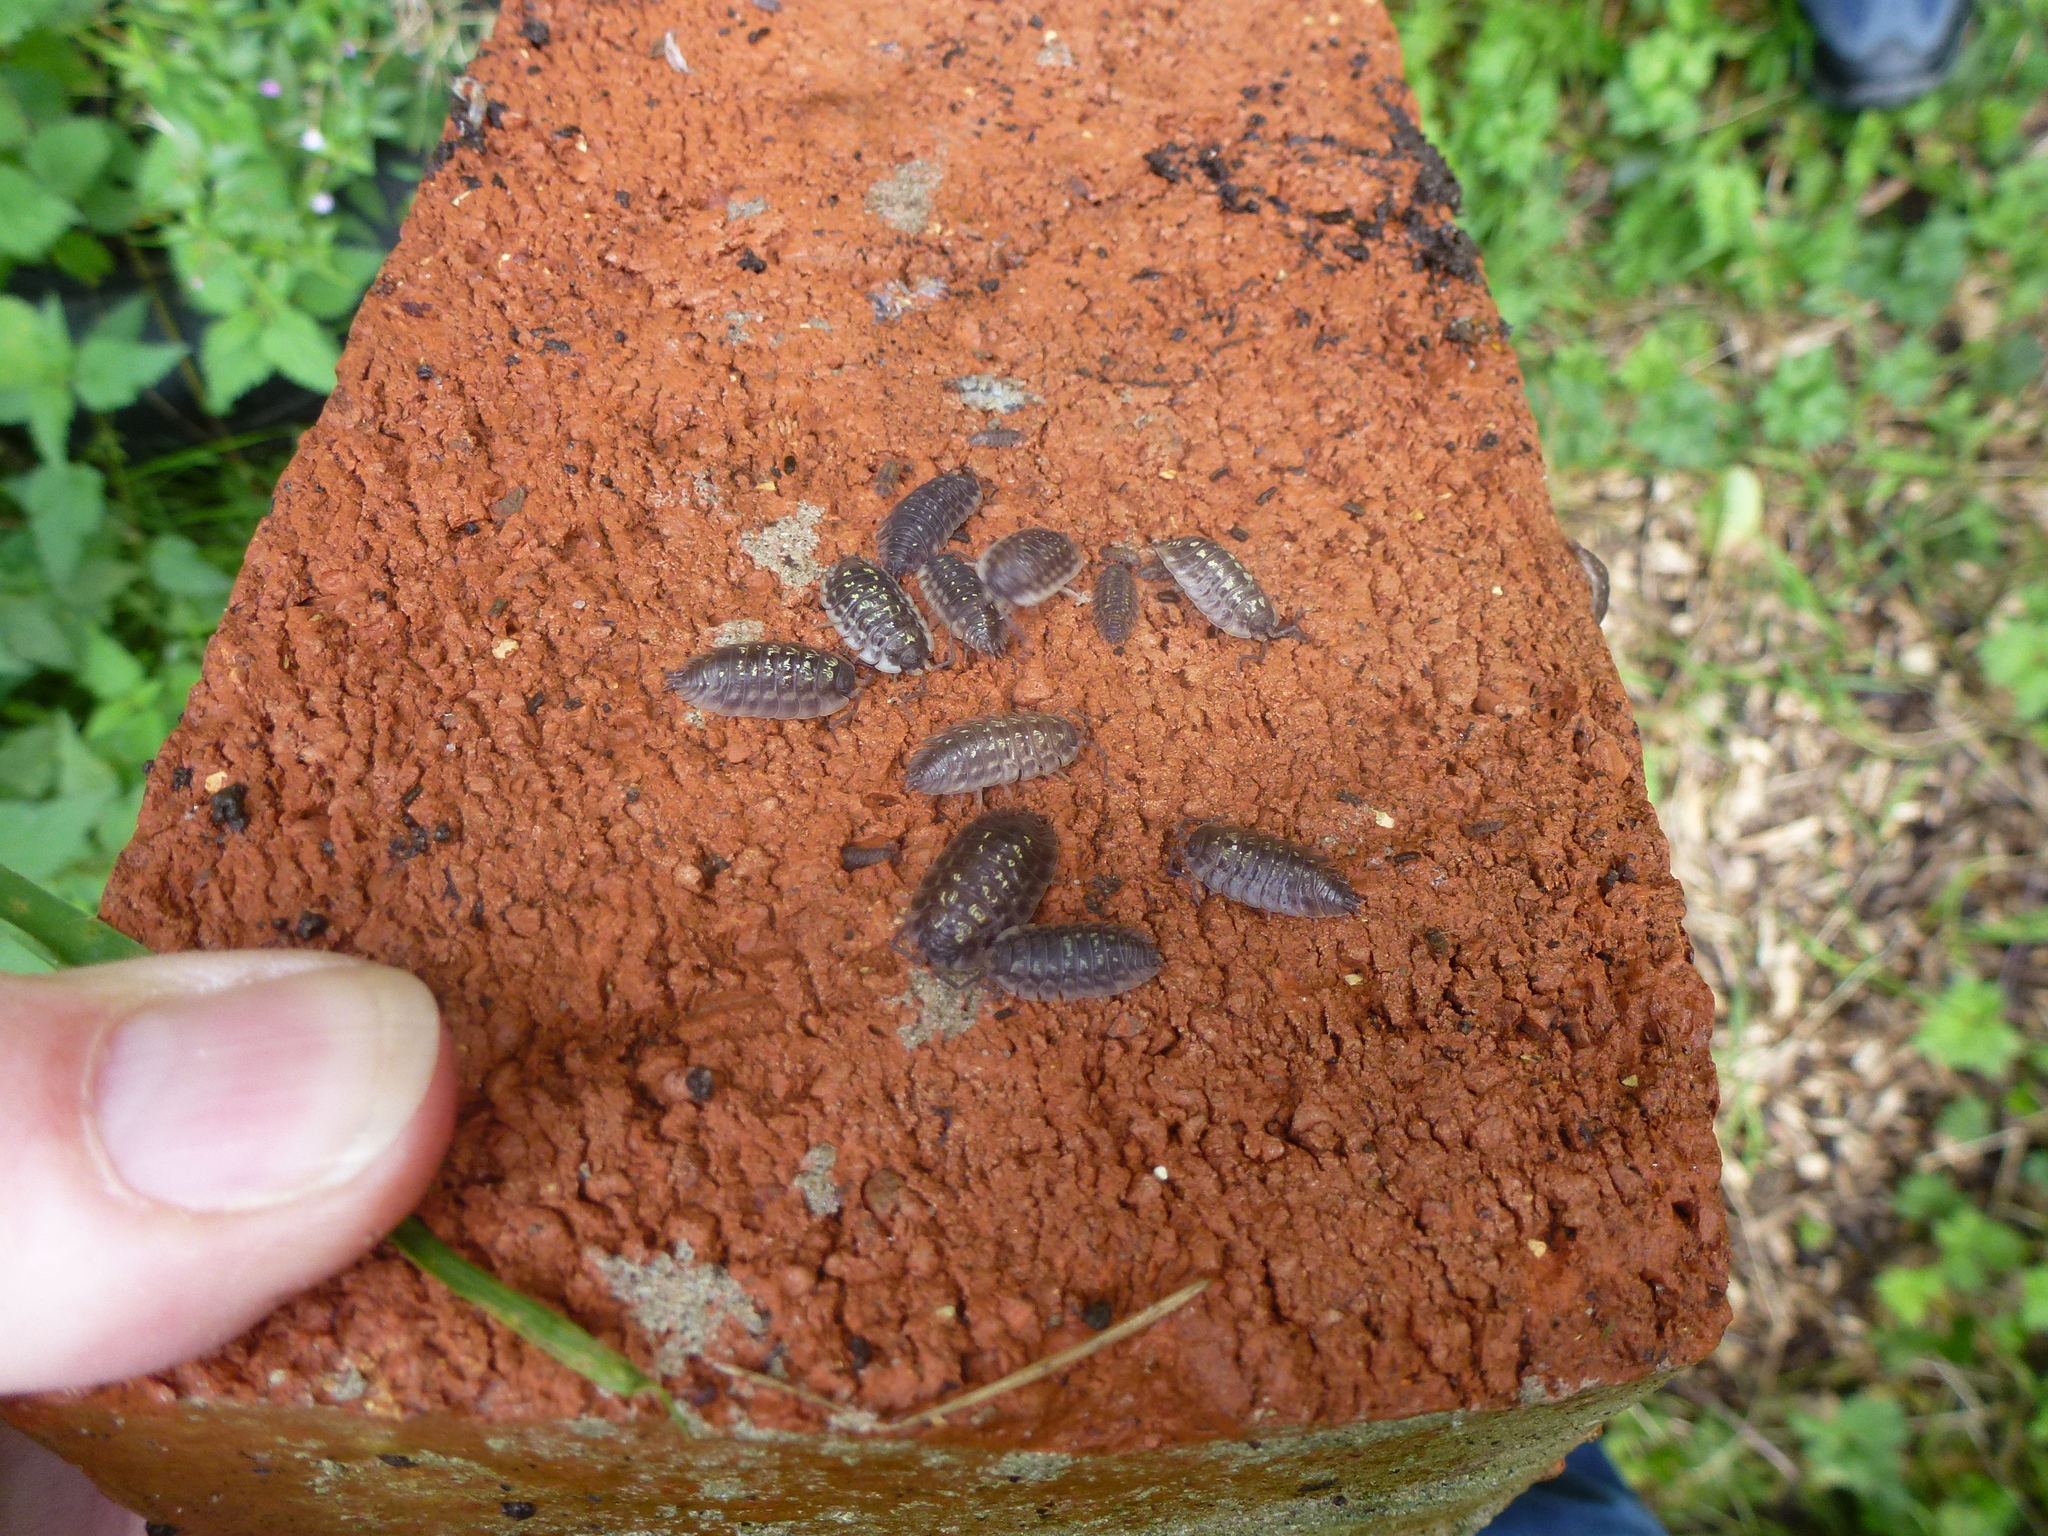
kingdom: Animalia
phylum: Arthropoda
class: Malacostraca
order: Isopoda
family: Oniscidae
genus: Oniscus
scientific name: Oniscus asellus
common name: Common shiny woodlouse
